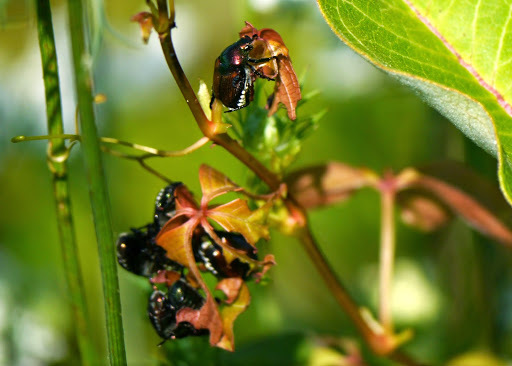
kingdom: Animalia
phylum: Arthropoda
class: Insecta
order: Coleoptera
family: Scarabaeidae
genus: Popillia
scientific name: Popillia japonica
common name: Japanese beetle
